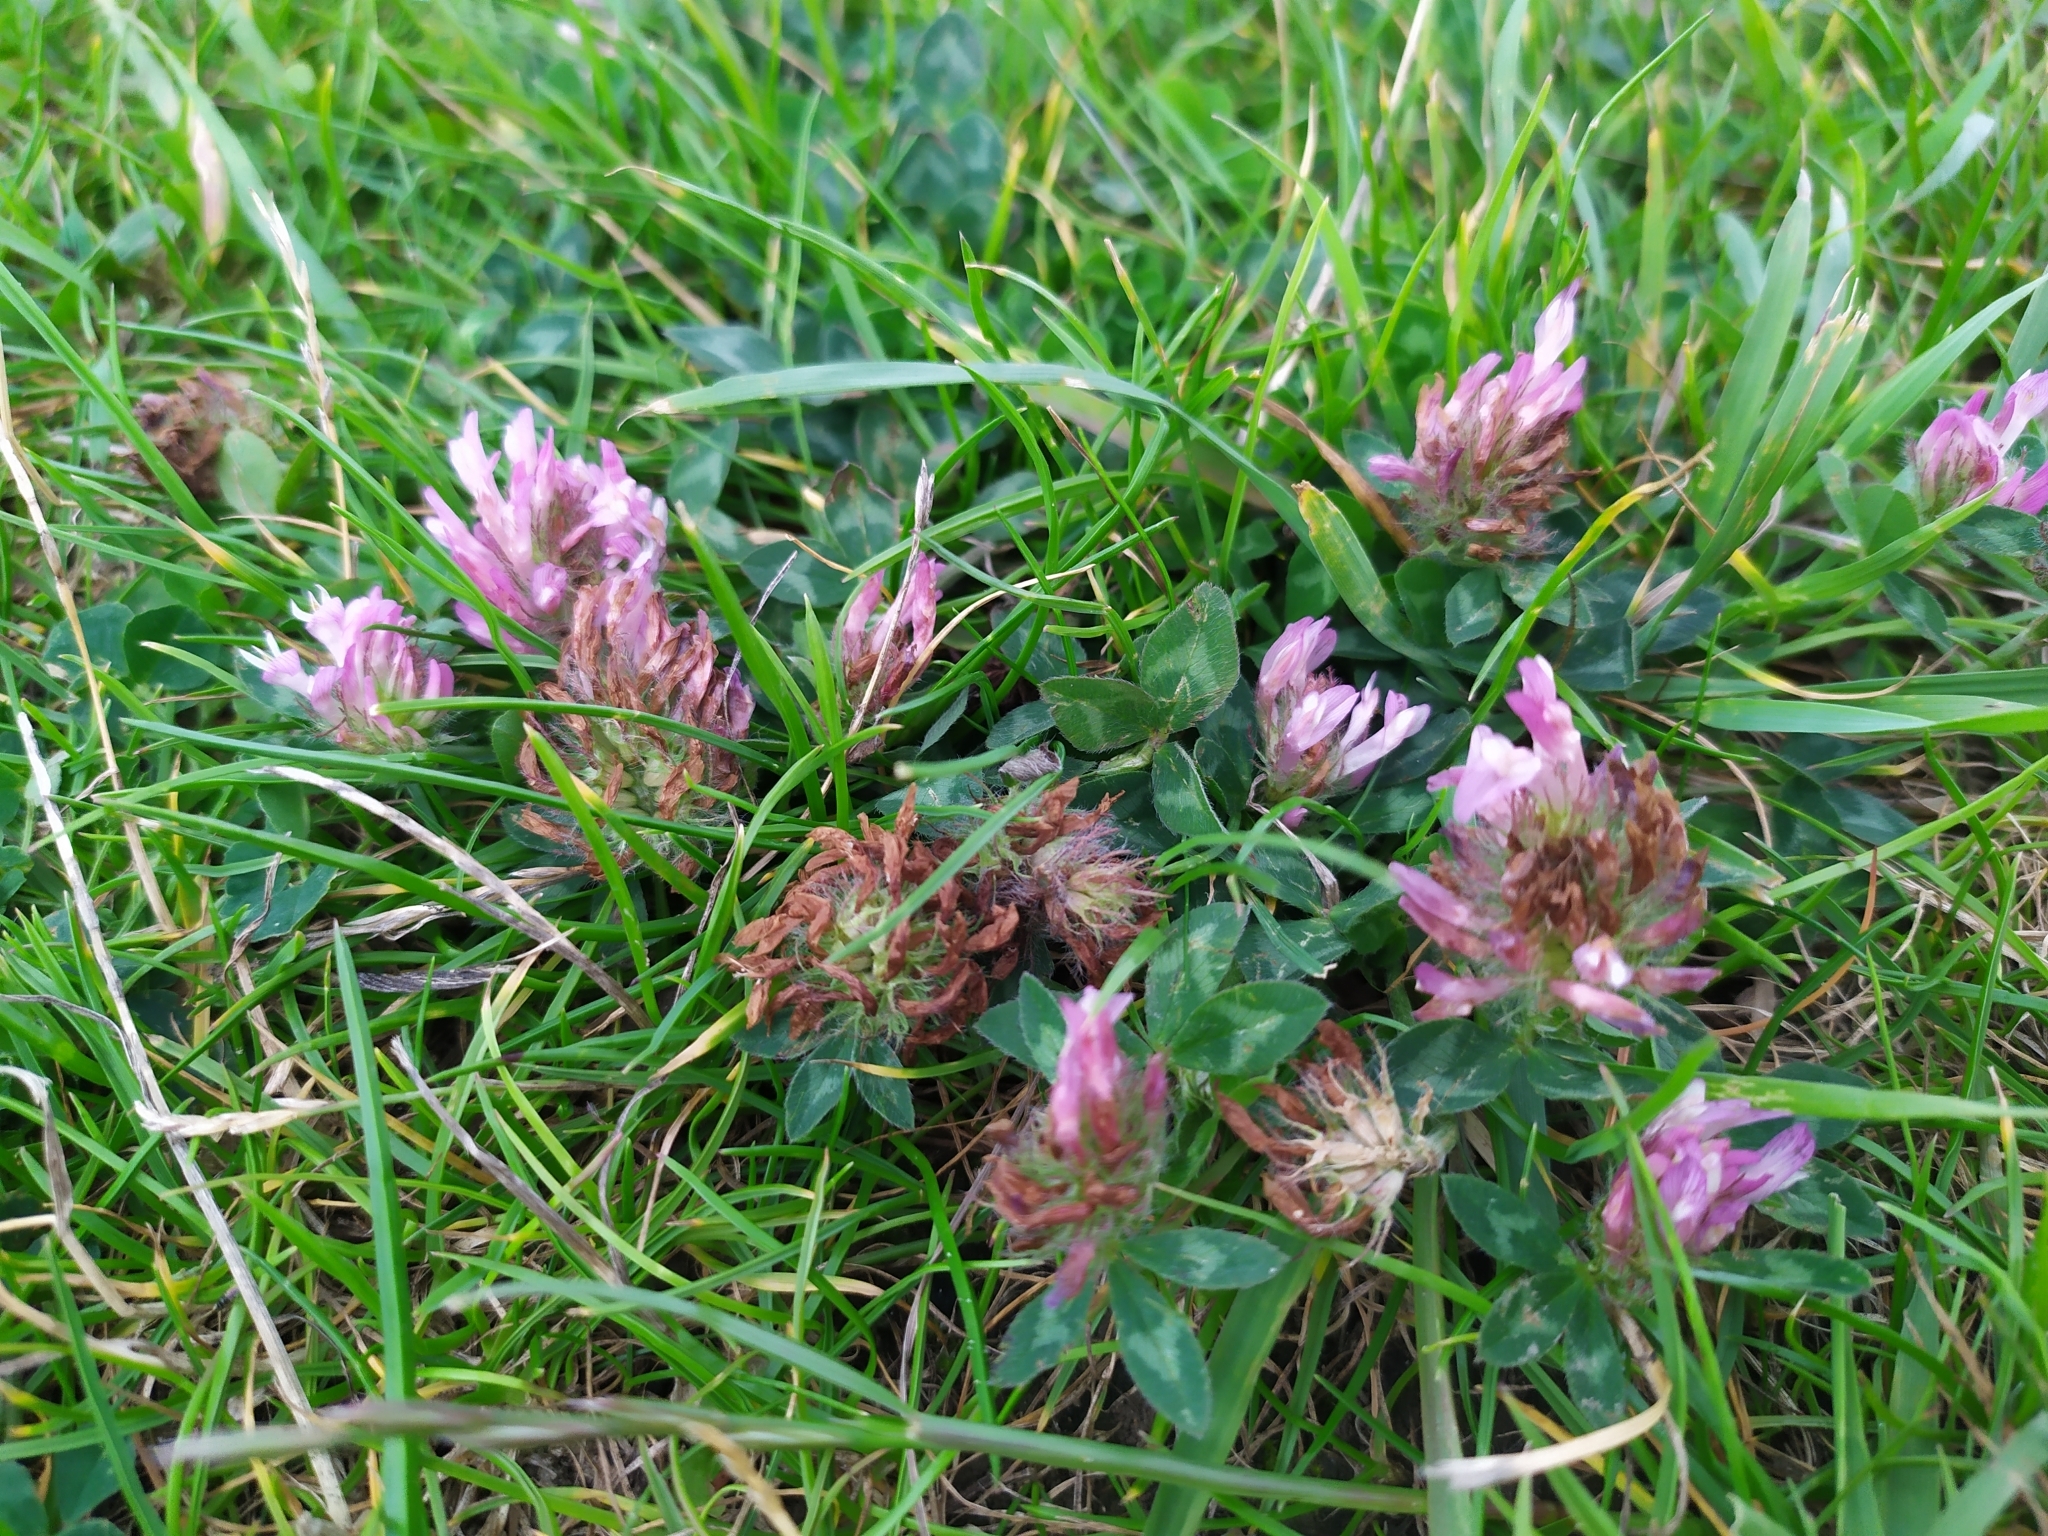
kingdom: Plantae
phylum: Tracheophyta
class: Magnoliopsida
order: Fabales
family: Fabaceae
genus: Trifolium
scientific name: Trifolium pratense
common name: Red clover
